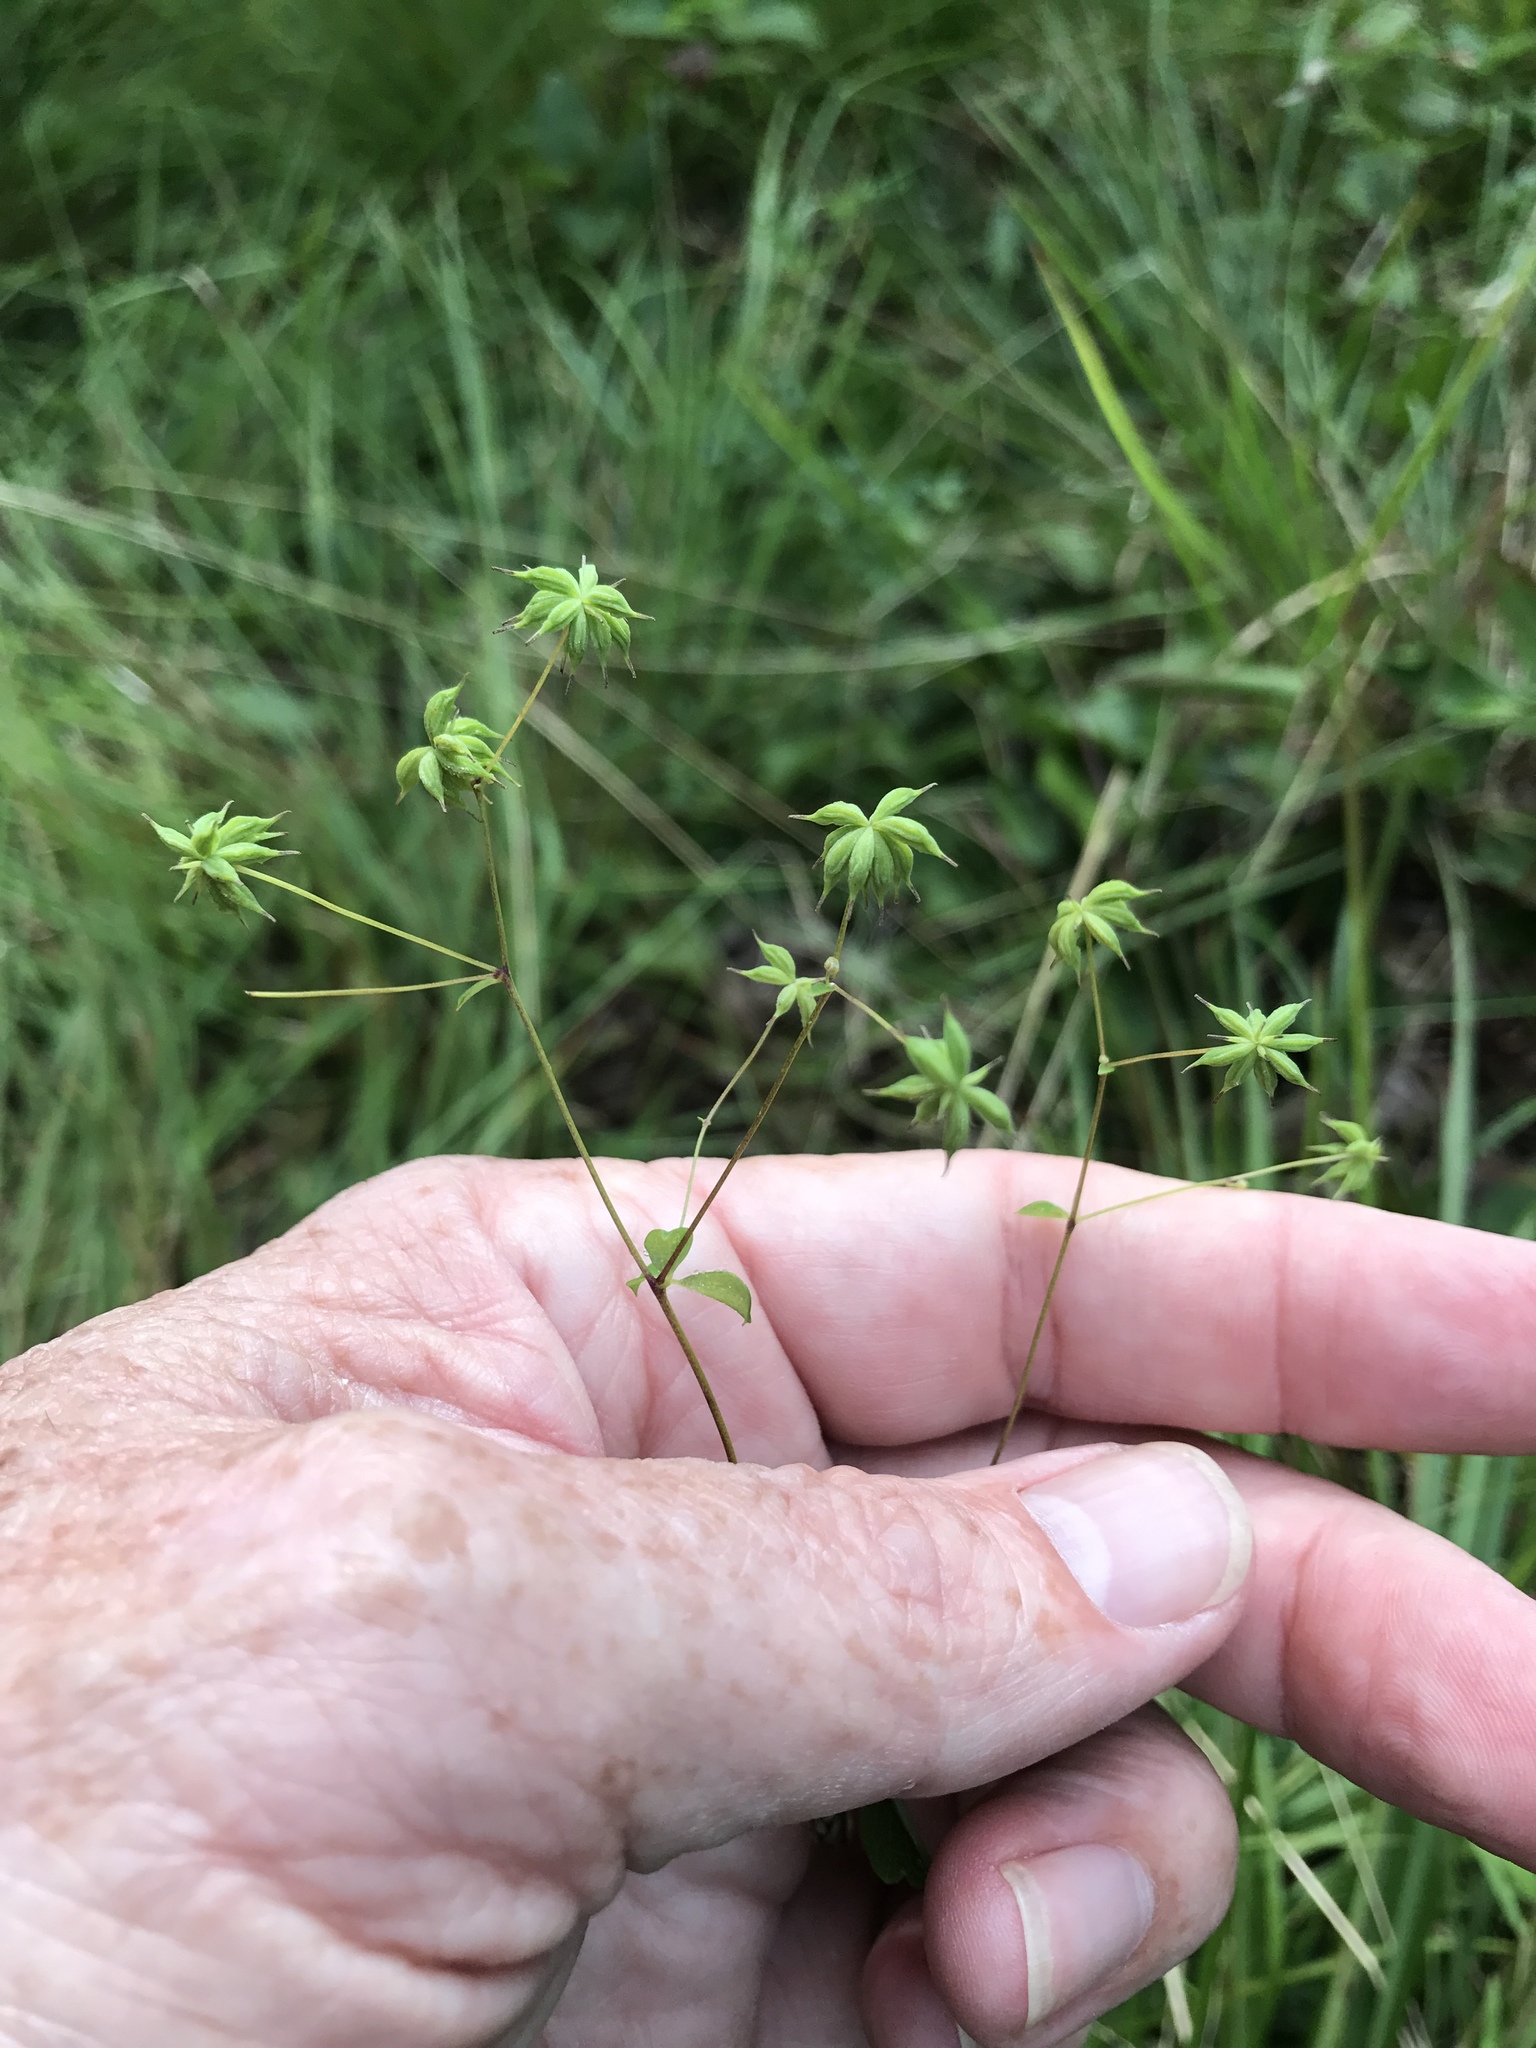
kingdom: Plantae
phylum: Tracheophyta
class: Magnoliopsida
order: Ranunculales
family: Ranunculaceae
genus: Thalictrum
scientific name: Thalictrum macrostylum
